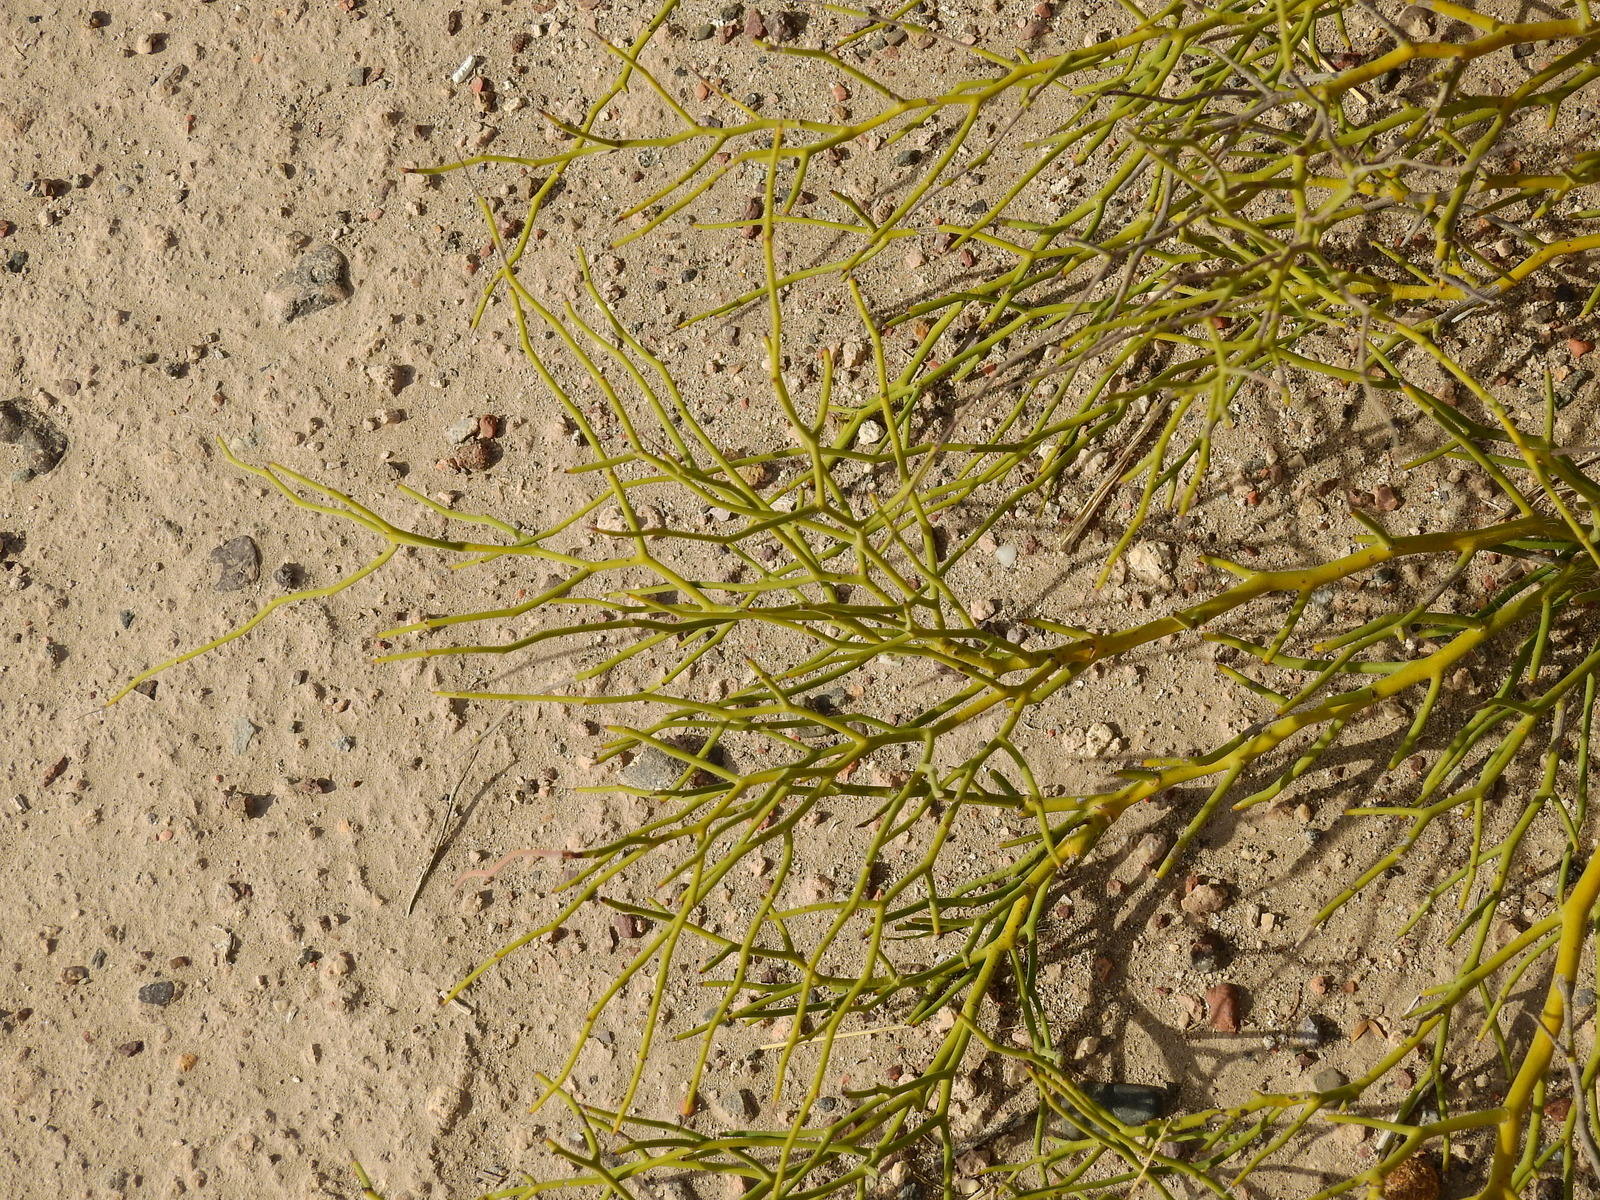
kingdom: Plantae
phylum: Tracheophyta
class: Magnoliopsida
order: Fabales
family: Fabaceae
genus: Senna
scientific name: Senna pachyrrhiza
